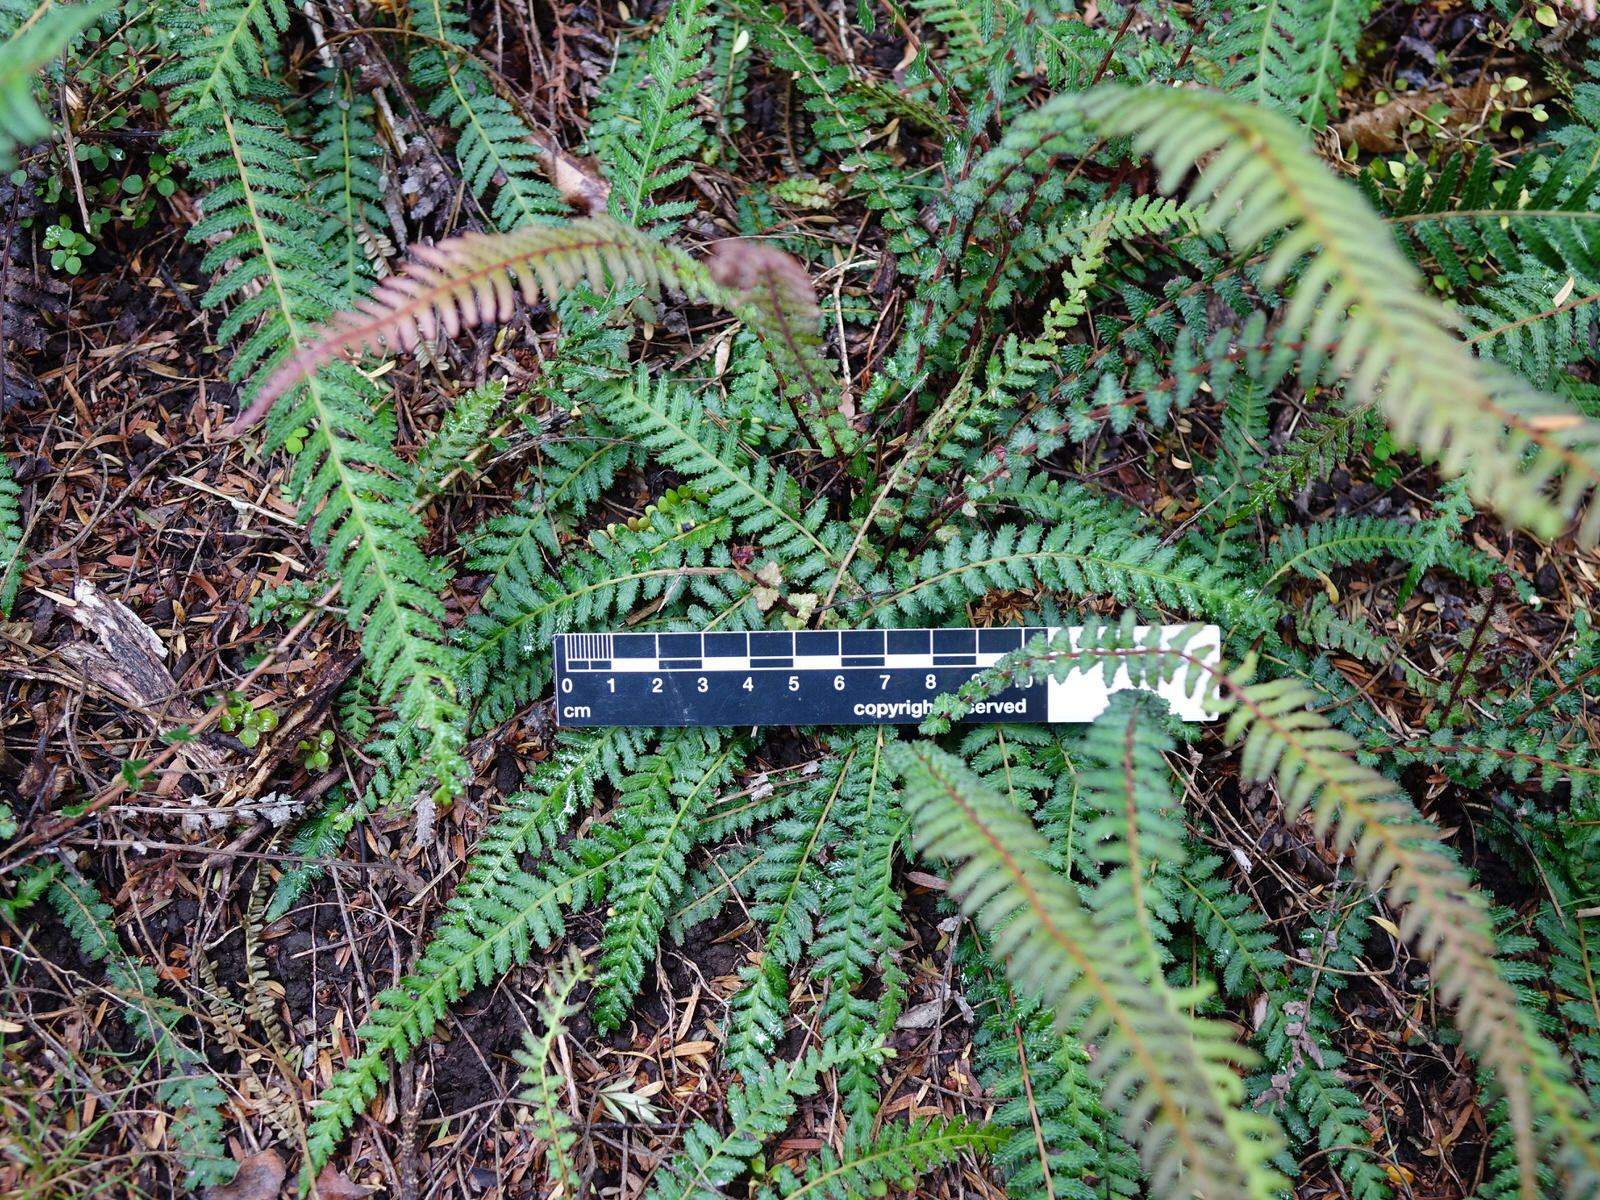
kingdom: Plantae
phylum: Tracheophyta
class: Polypodiopsida
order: Polypodiales
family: Blechnaceae
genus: Doodia
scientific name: Doodia australis
